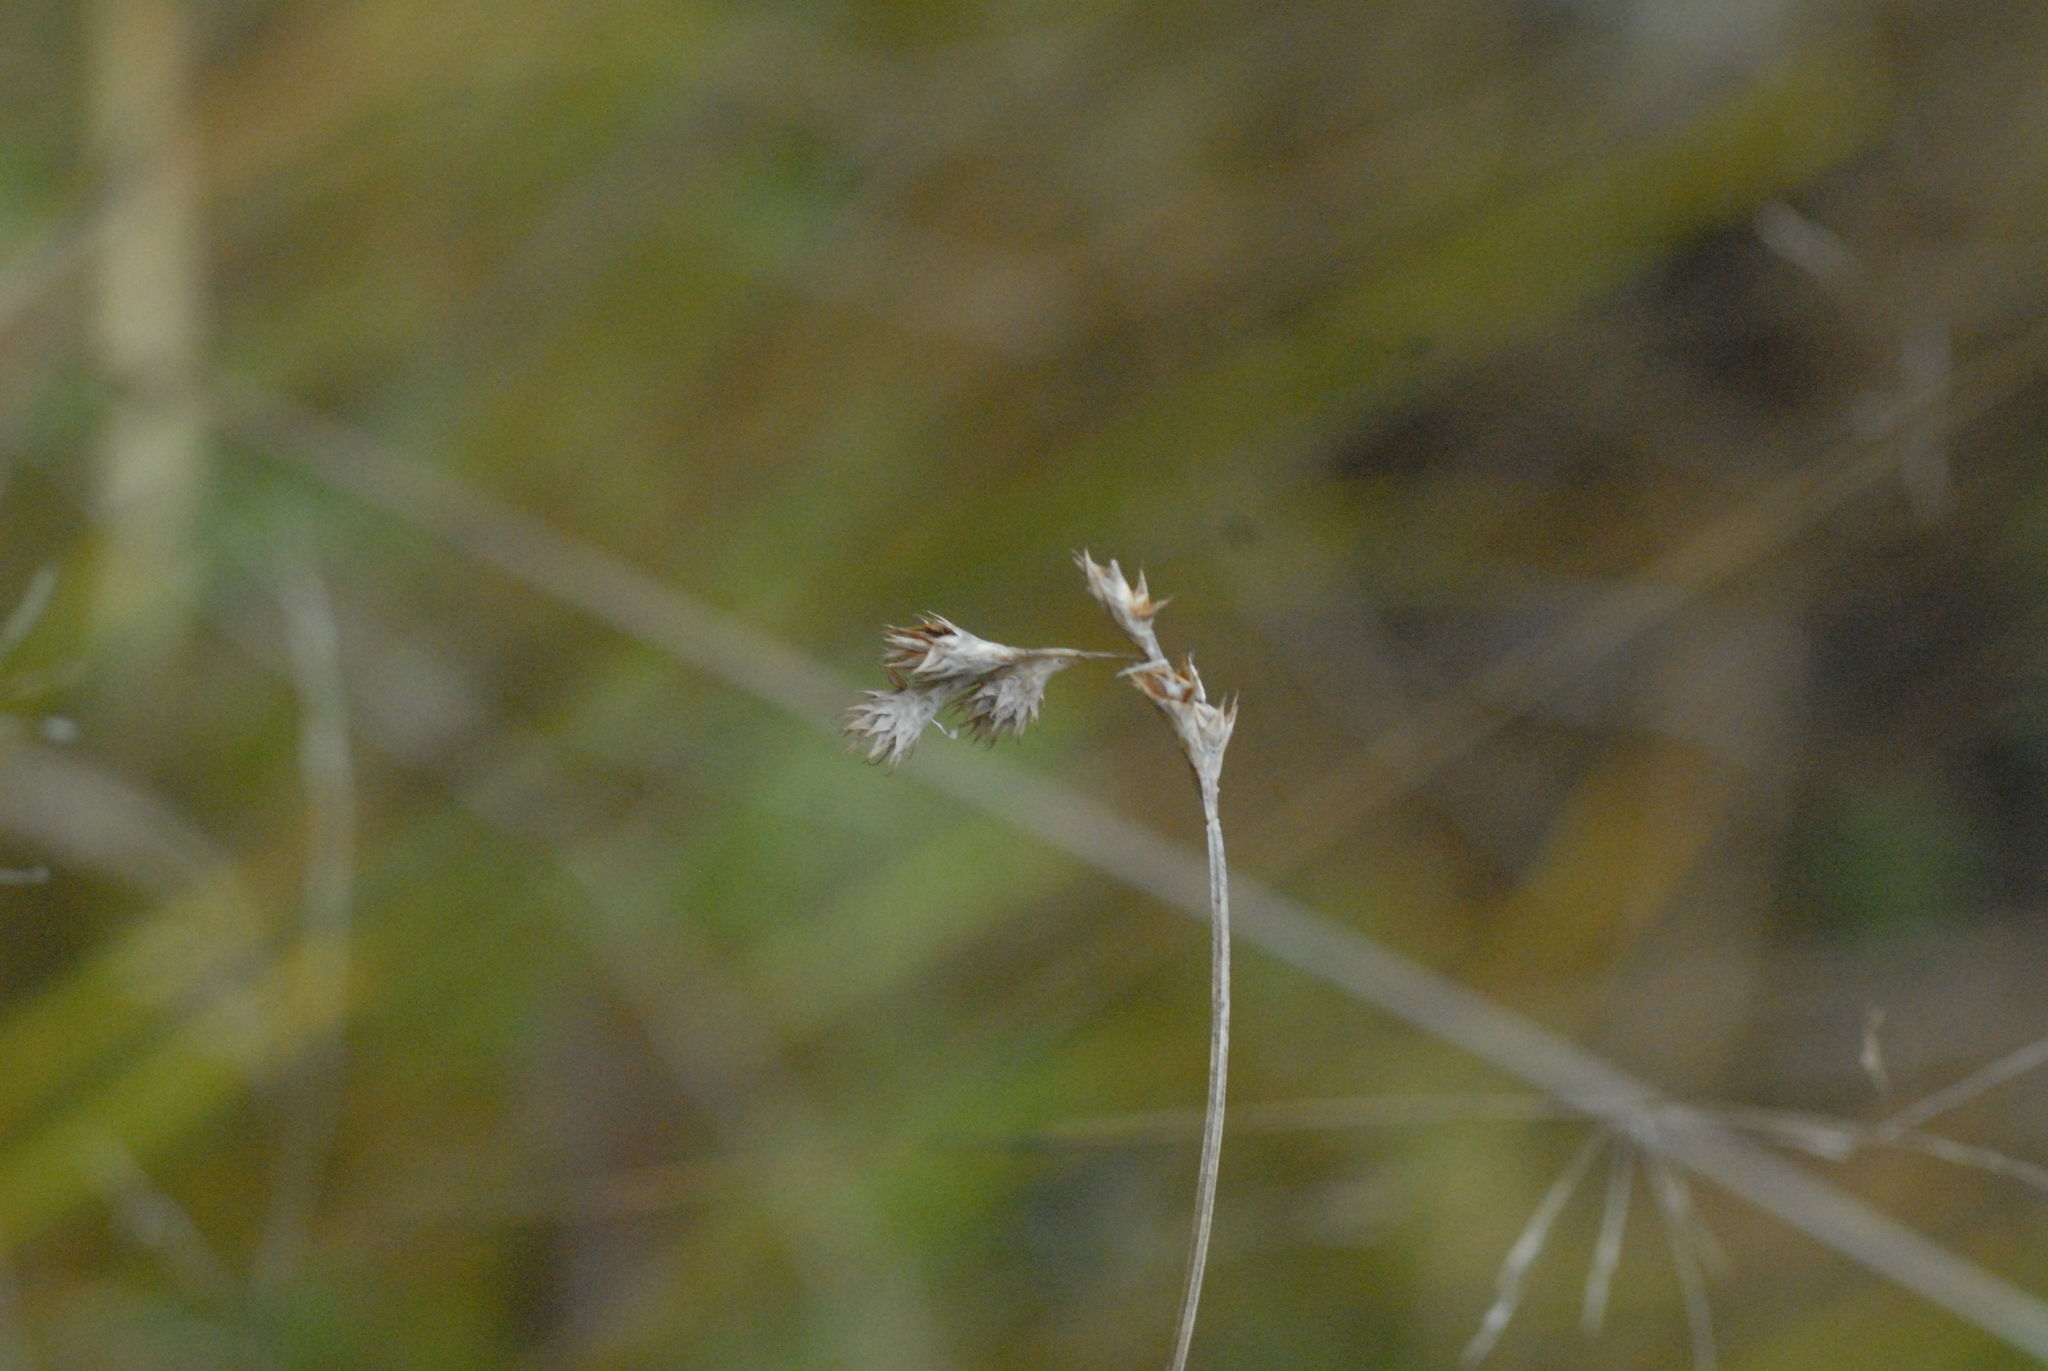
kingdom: Plantae
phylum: Tracheophyta
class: Liliopsida
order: Poales
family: Cyperaceae
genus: Carex
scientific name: Carex leporina
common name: Oval sedge
